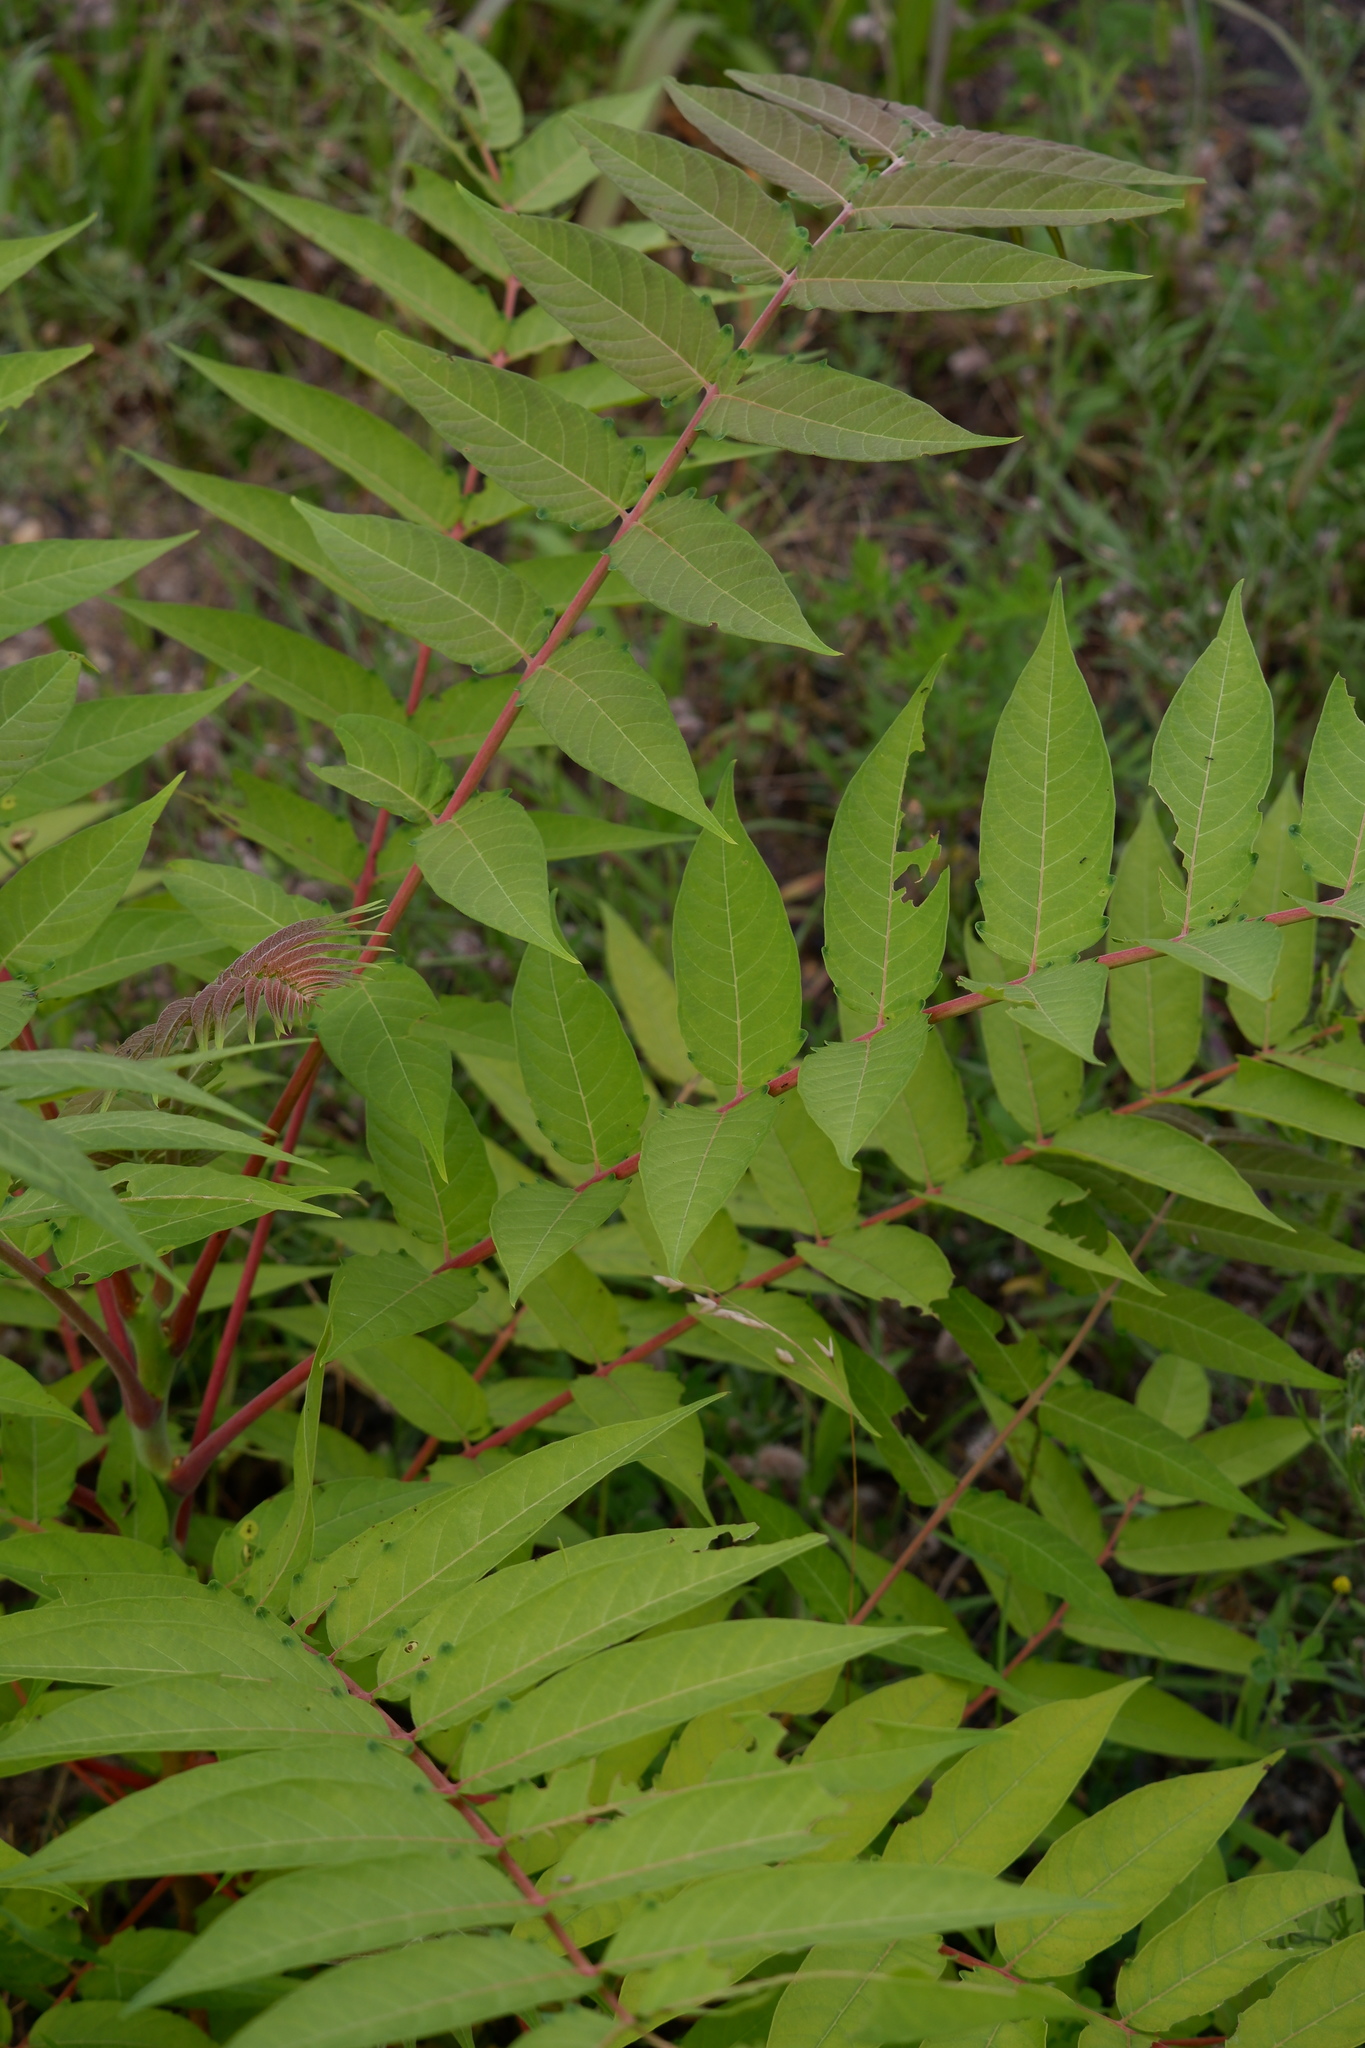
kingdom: Plantae
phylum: Tracheophyta
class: Magnoliopsida
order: Sapindales
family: Simaroubaceae
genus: Ailanthus
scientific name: Ailanthus altissima
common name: Tree-of-heaven
